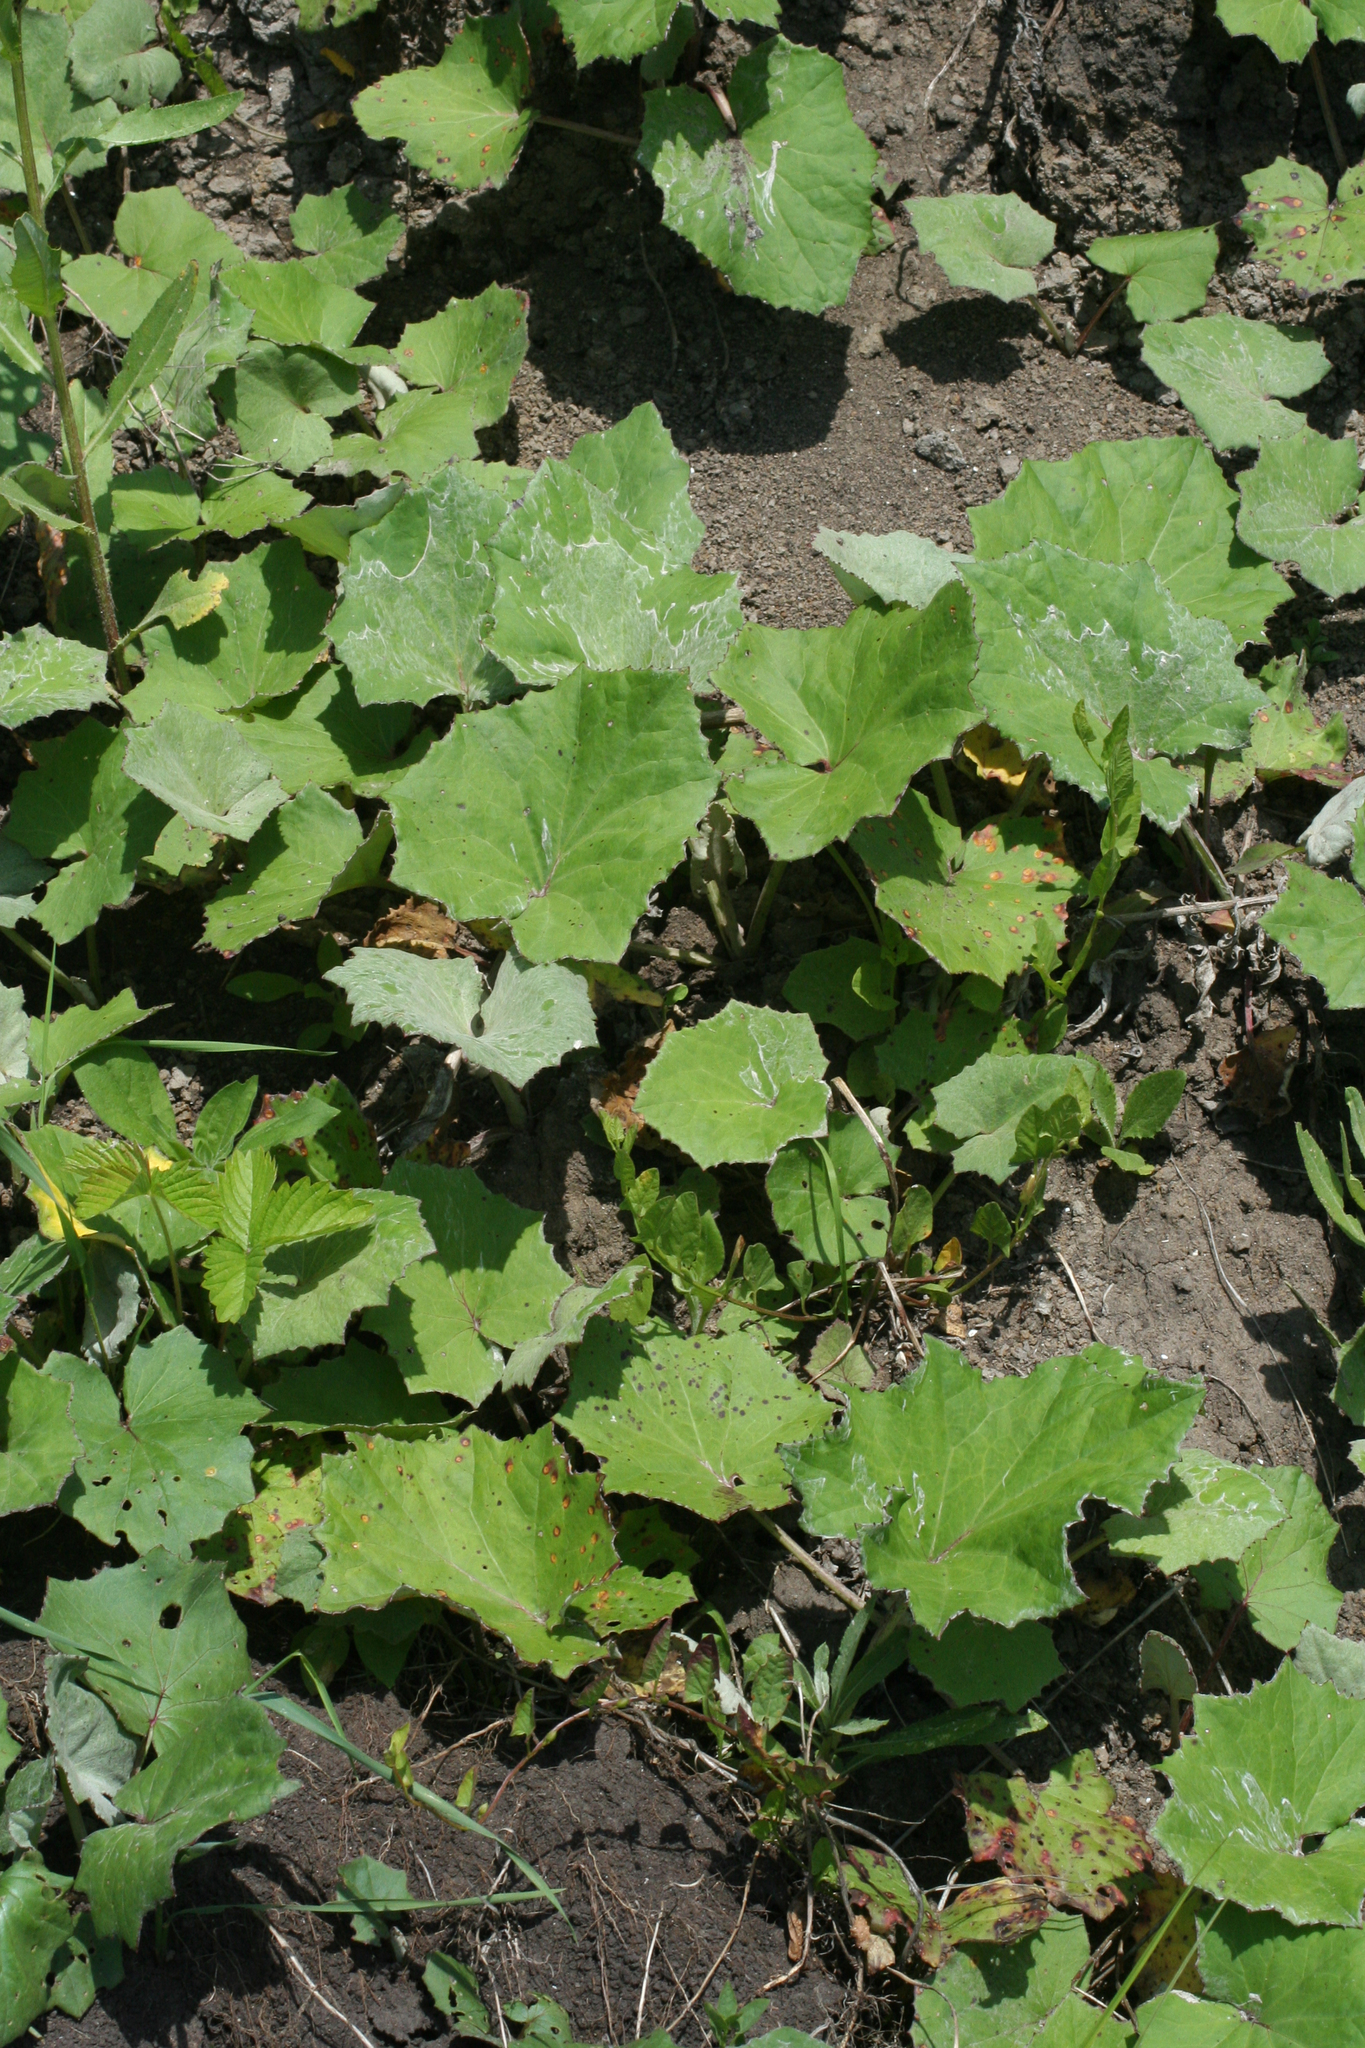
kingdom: Plantae
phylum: Tracheophyta
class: Magnoliopsida
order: Asterales
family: Asteraceae
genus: Tussilago
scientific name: Tussilago farfara
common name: Coltsfoot
